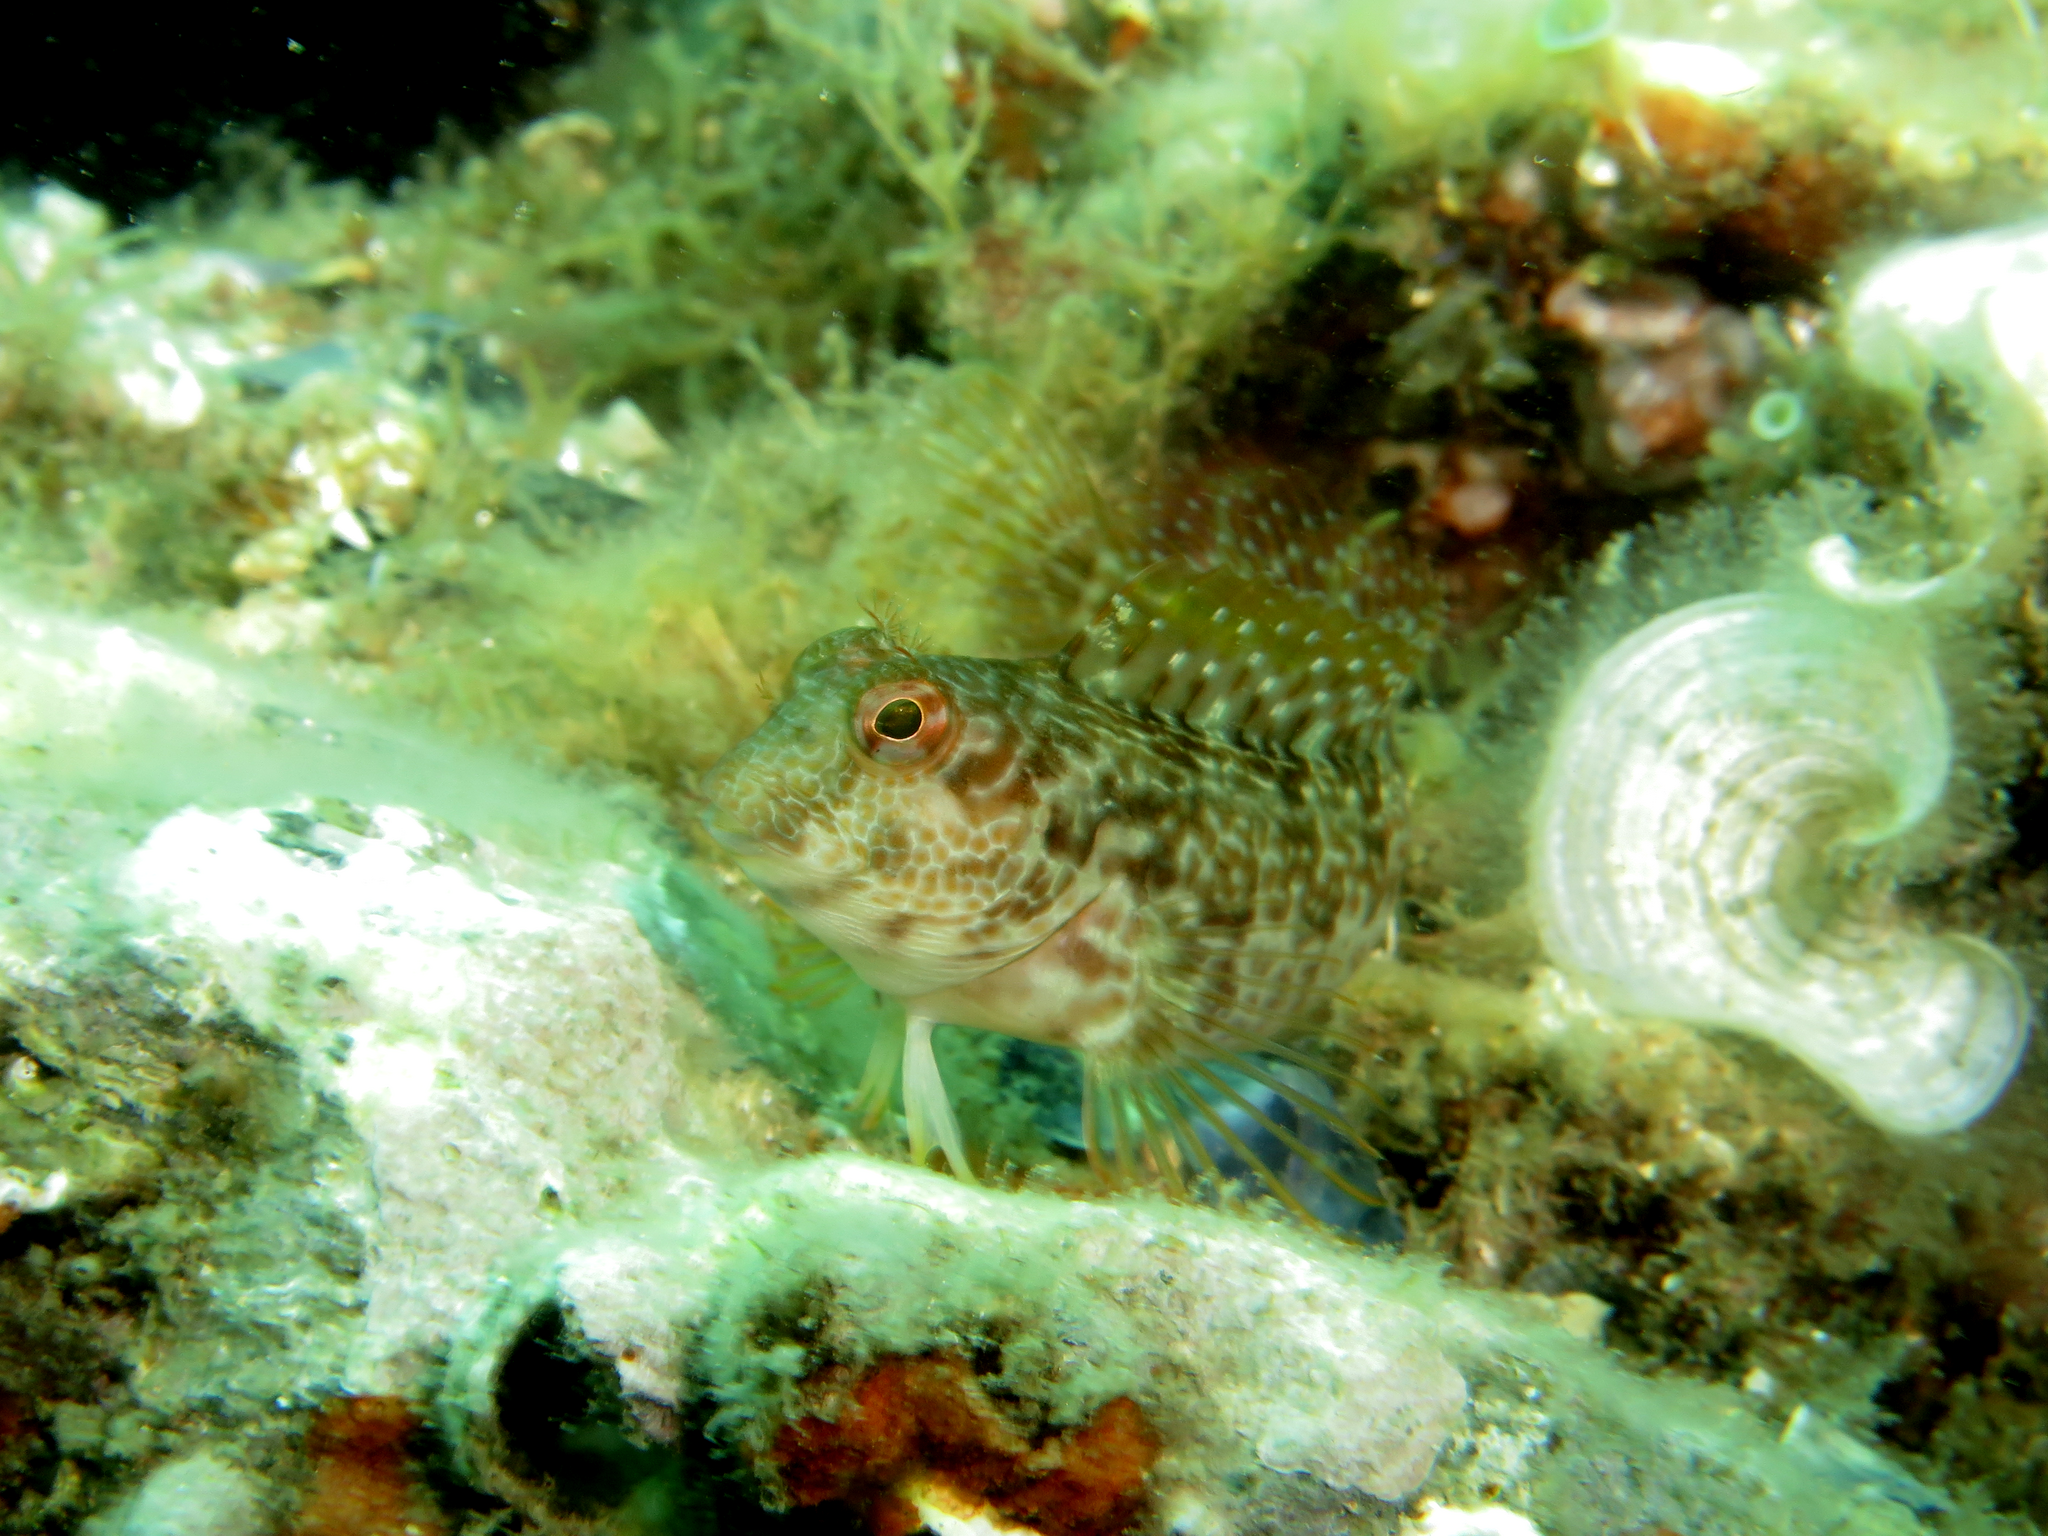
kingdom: Animalia
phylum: Chordata
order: Perciformes
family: Blenniidae
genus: Parablennius
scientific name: Parablennius pilicornis
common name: Ringneck blenny
